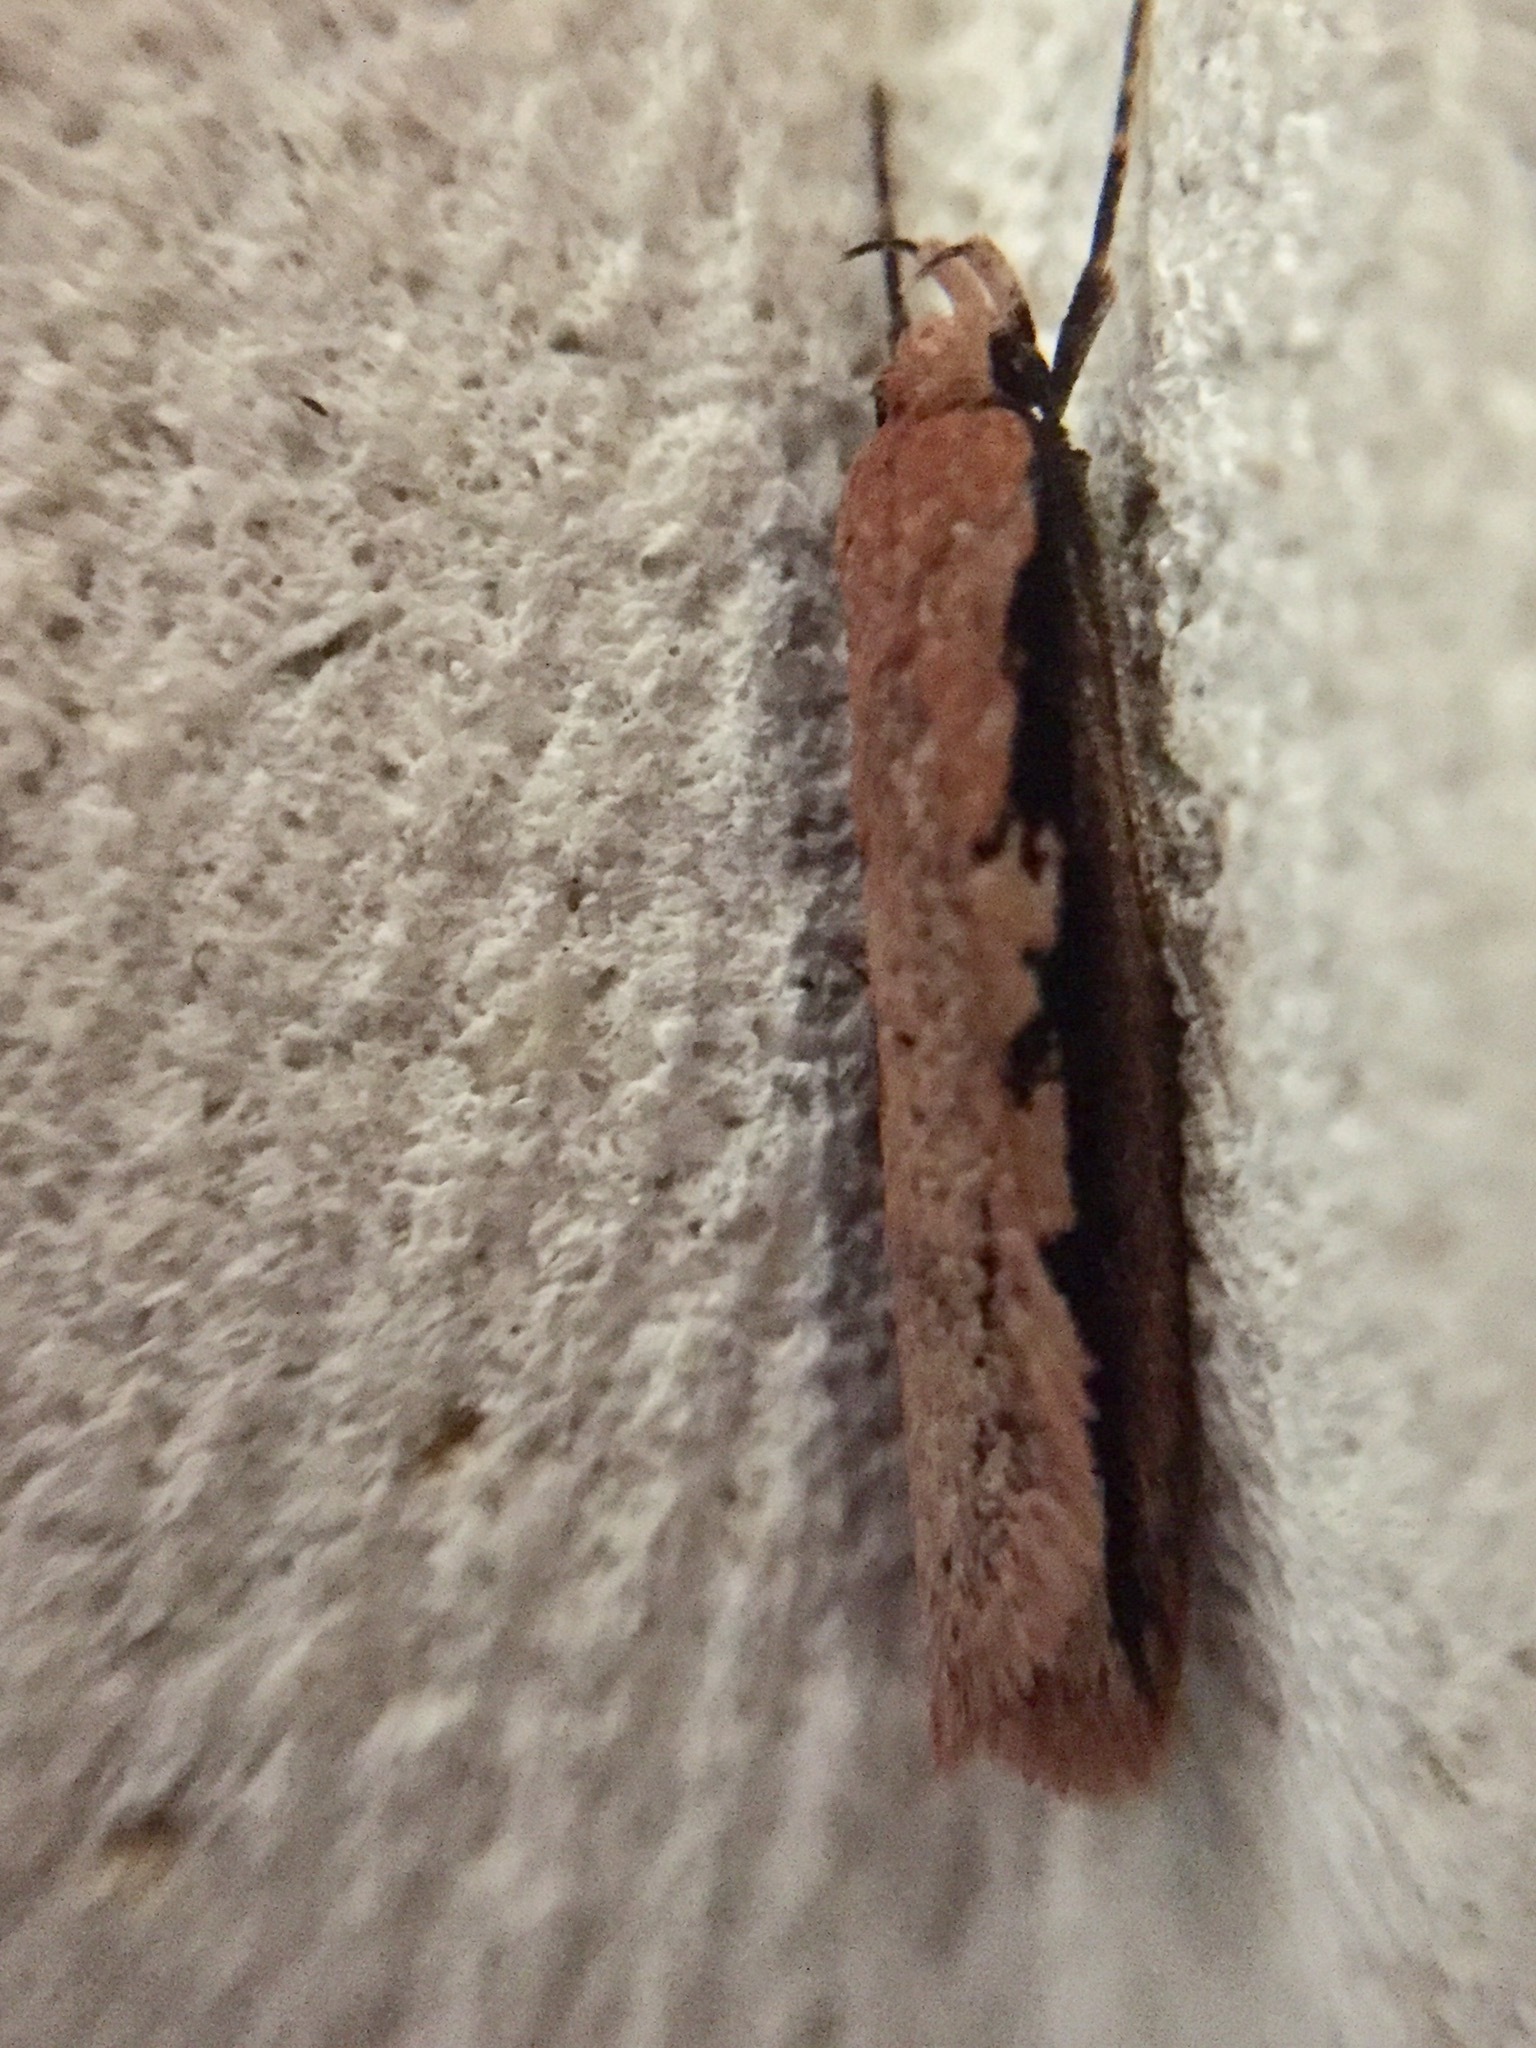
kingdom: Animalia
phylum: Arthropoda
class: Insecta
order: Lepidoptera
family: Oecophoridae
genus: Leptocroca
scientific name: Leptocroca sanguinolenta
